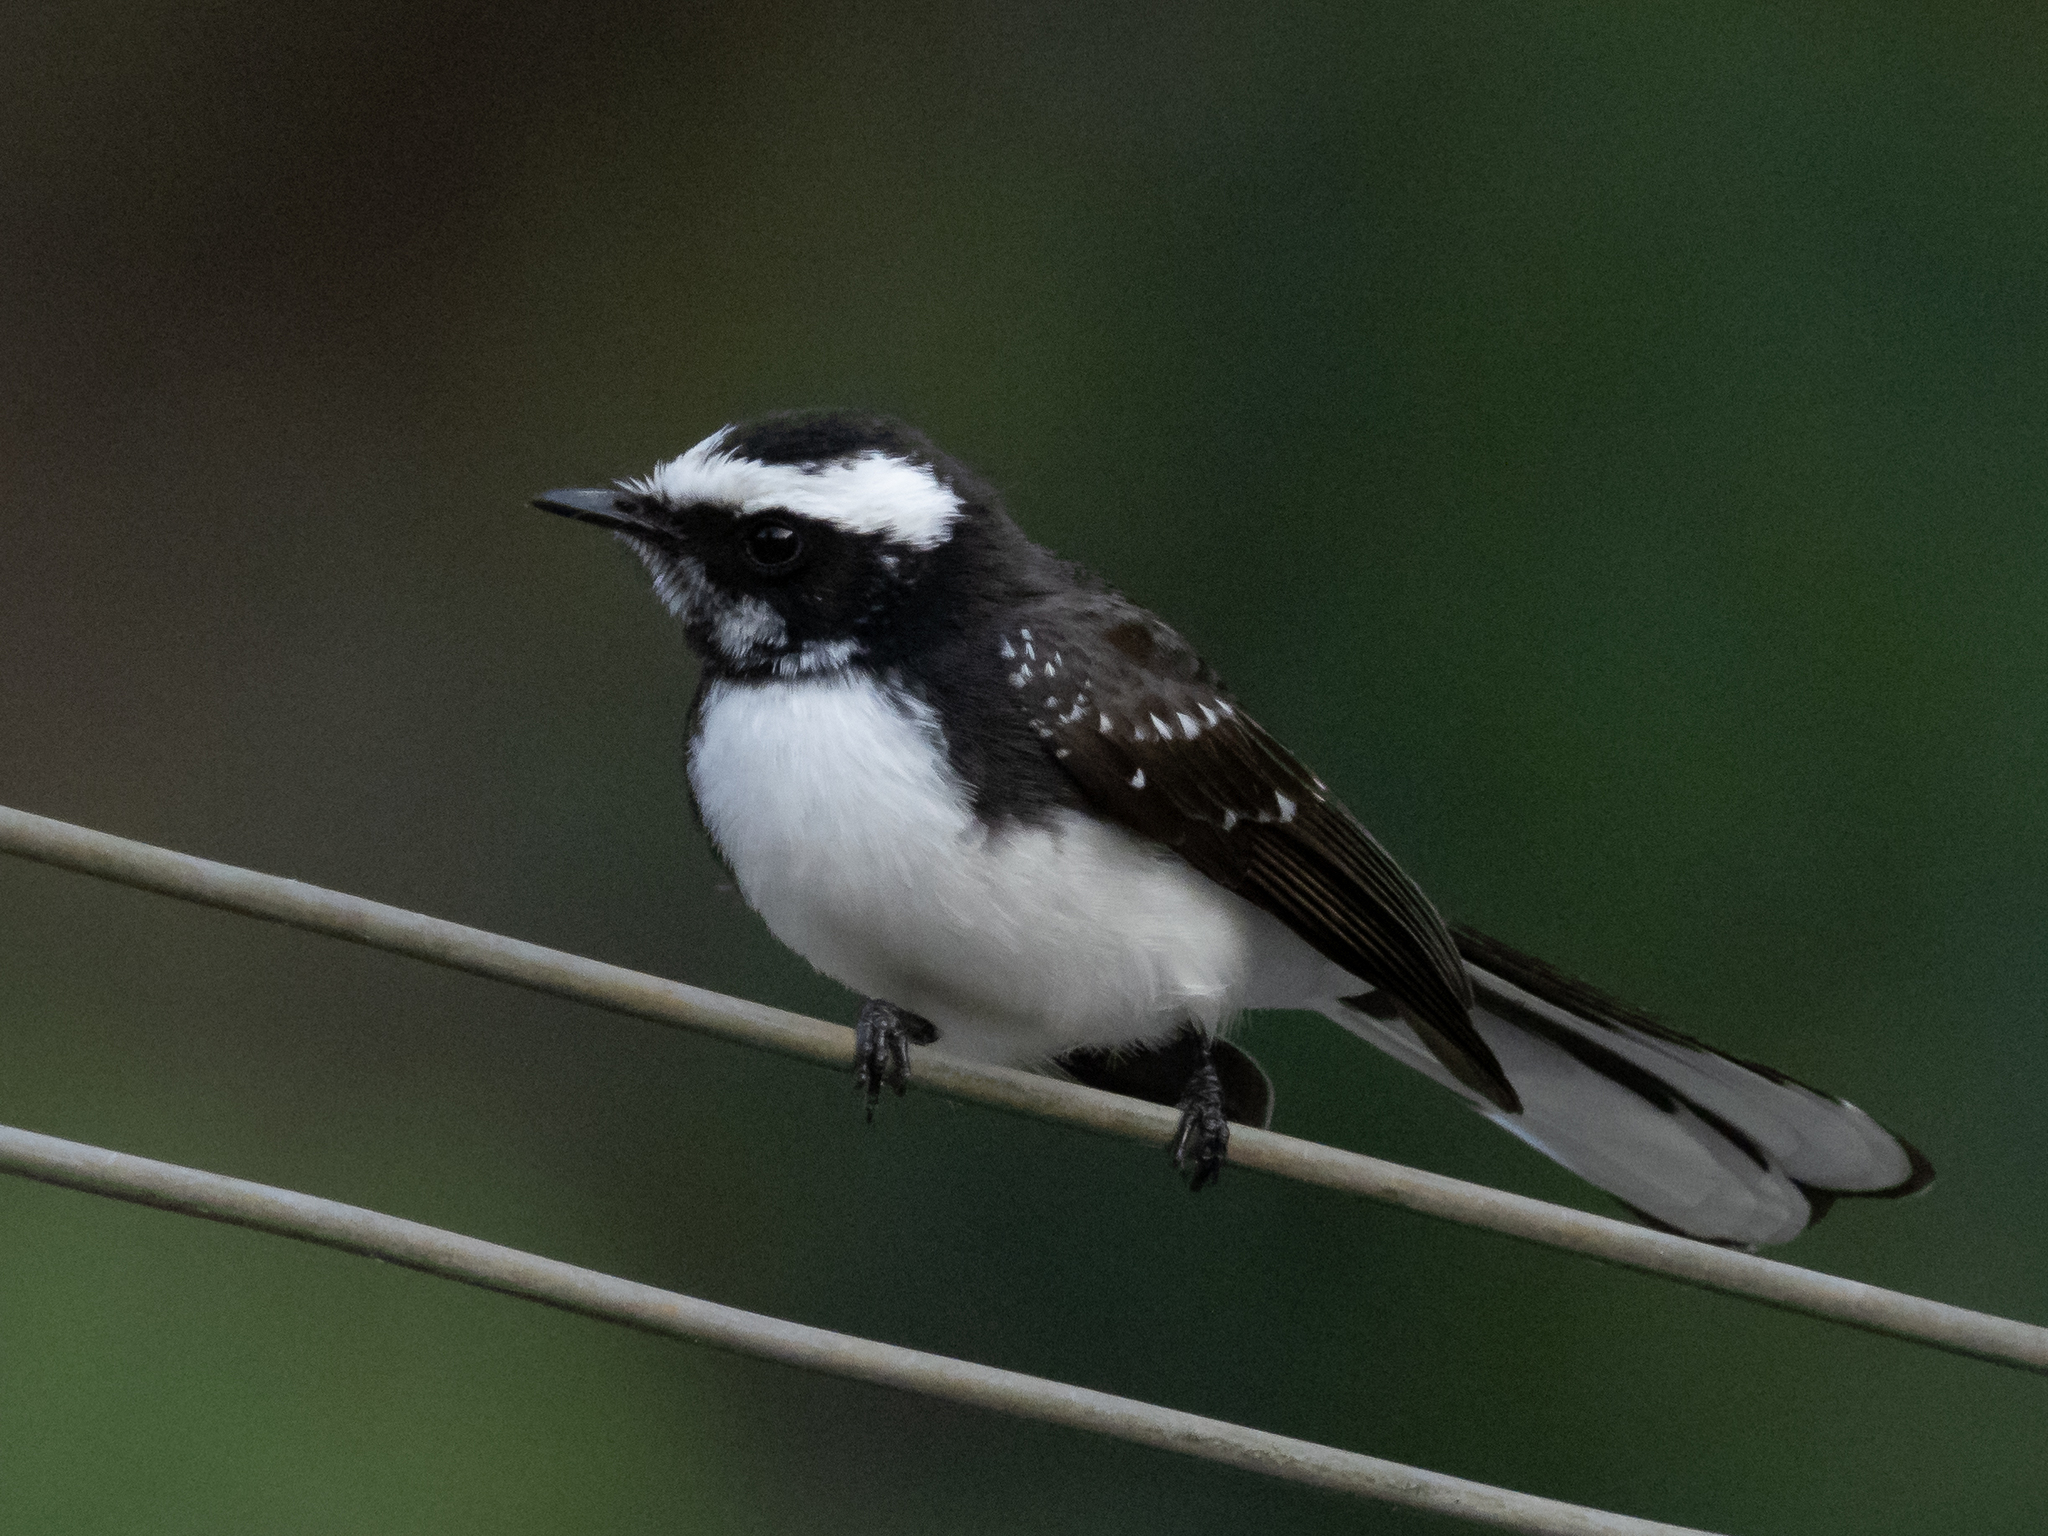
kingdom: Animalia
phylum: Chordata
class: Aves
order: Passeriformes
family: Rhipiduridae
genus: Rhipidura
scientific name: Rhipidura aureola
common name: White-browed fantail
